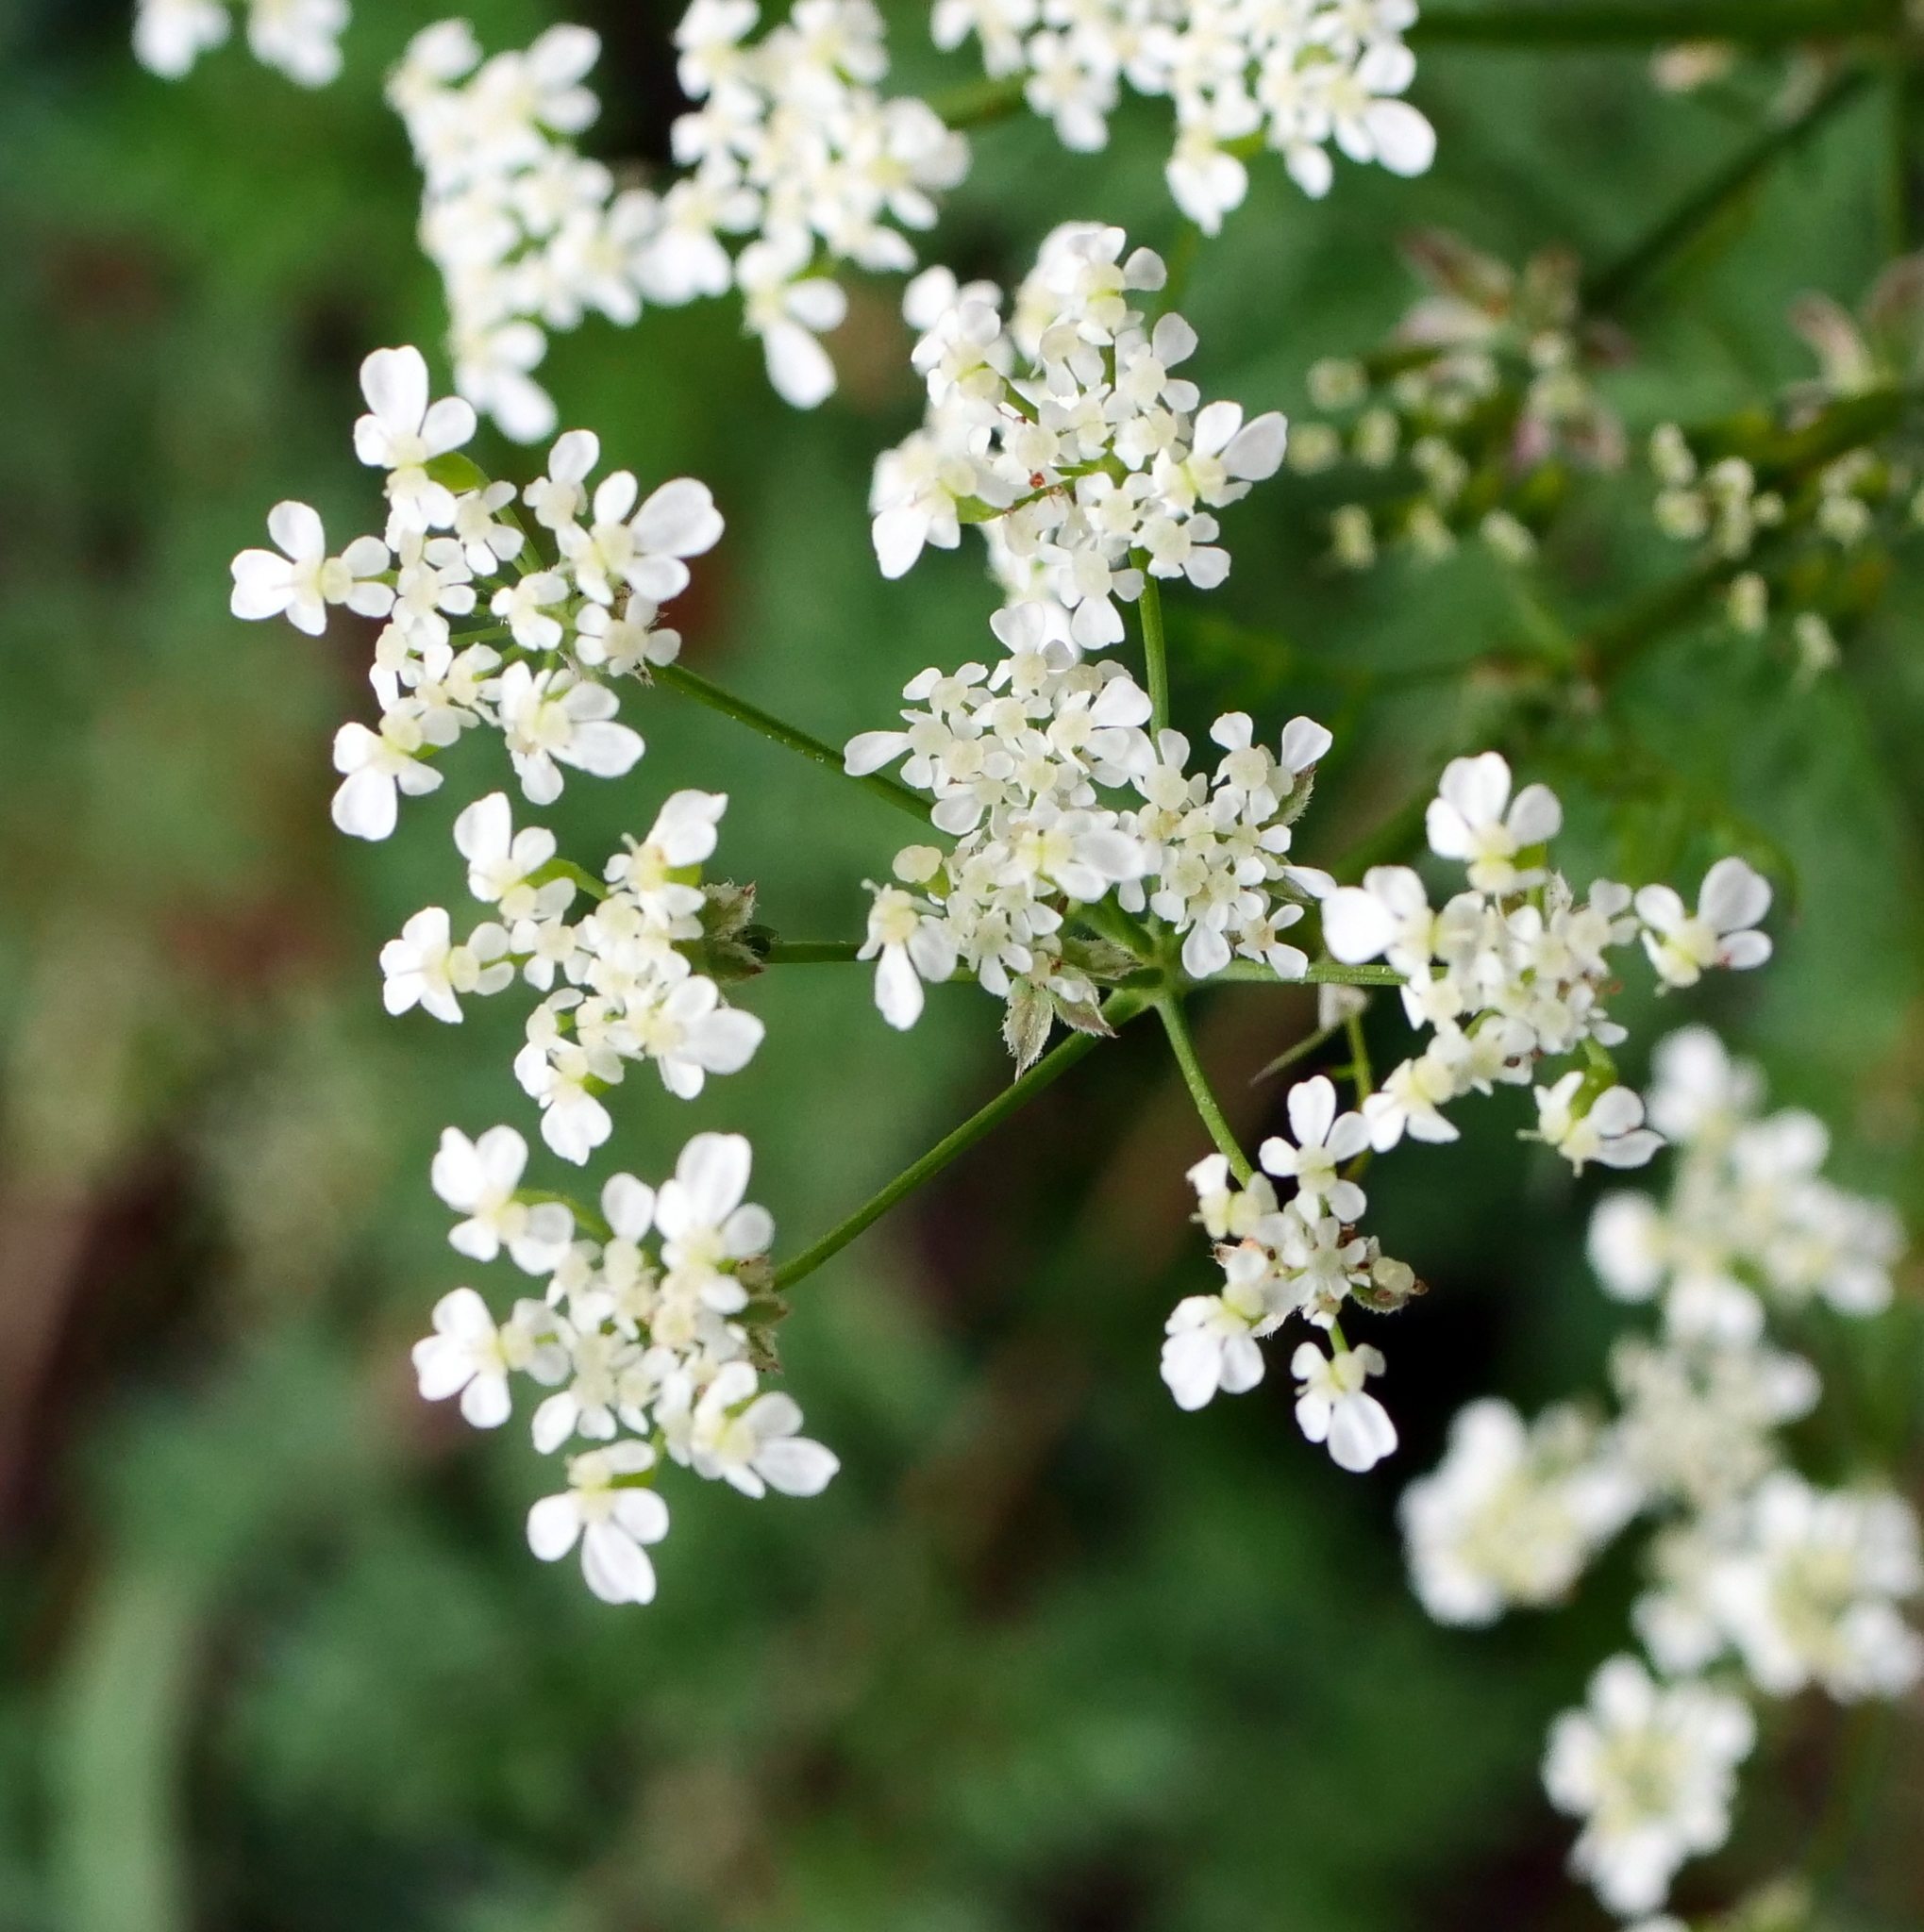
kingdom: Plantae
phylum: Tracheophyta
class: Magnoliopsida
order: Apiales
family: Apiaceae
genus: Anthriscus
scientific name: Anthriscus sylvestris
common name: Cow parsley
